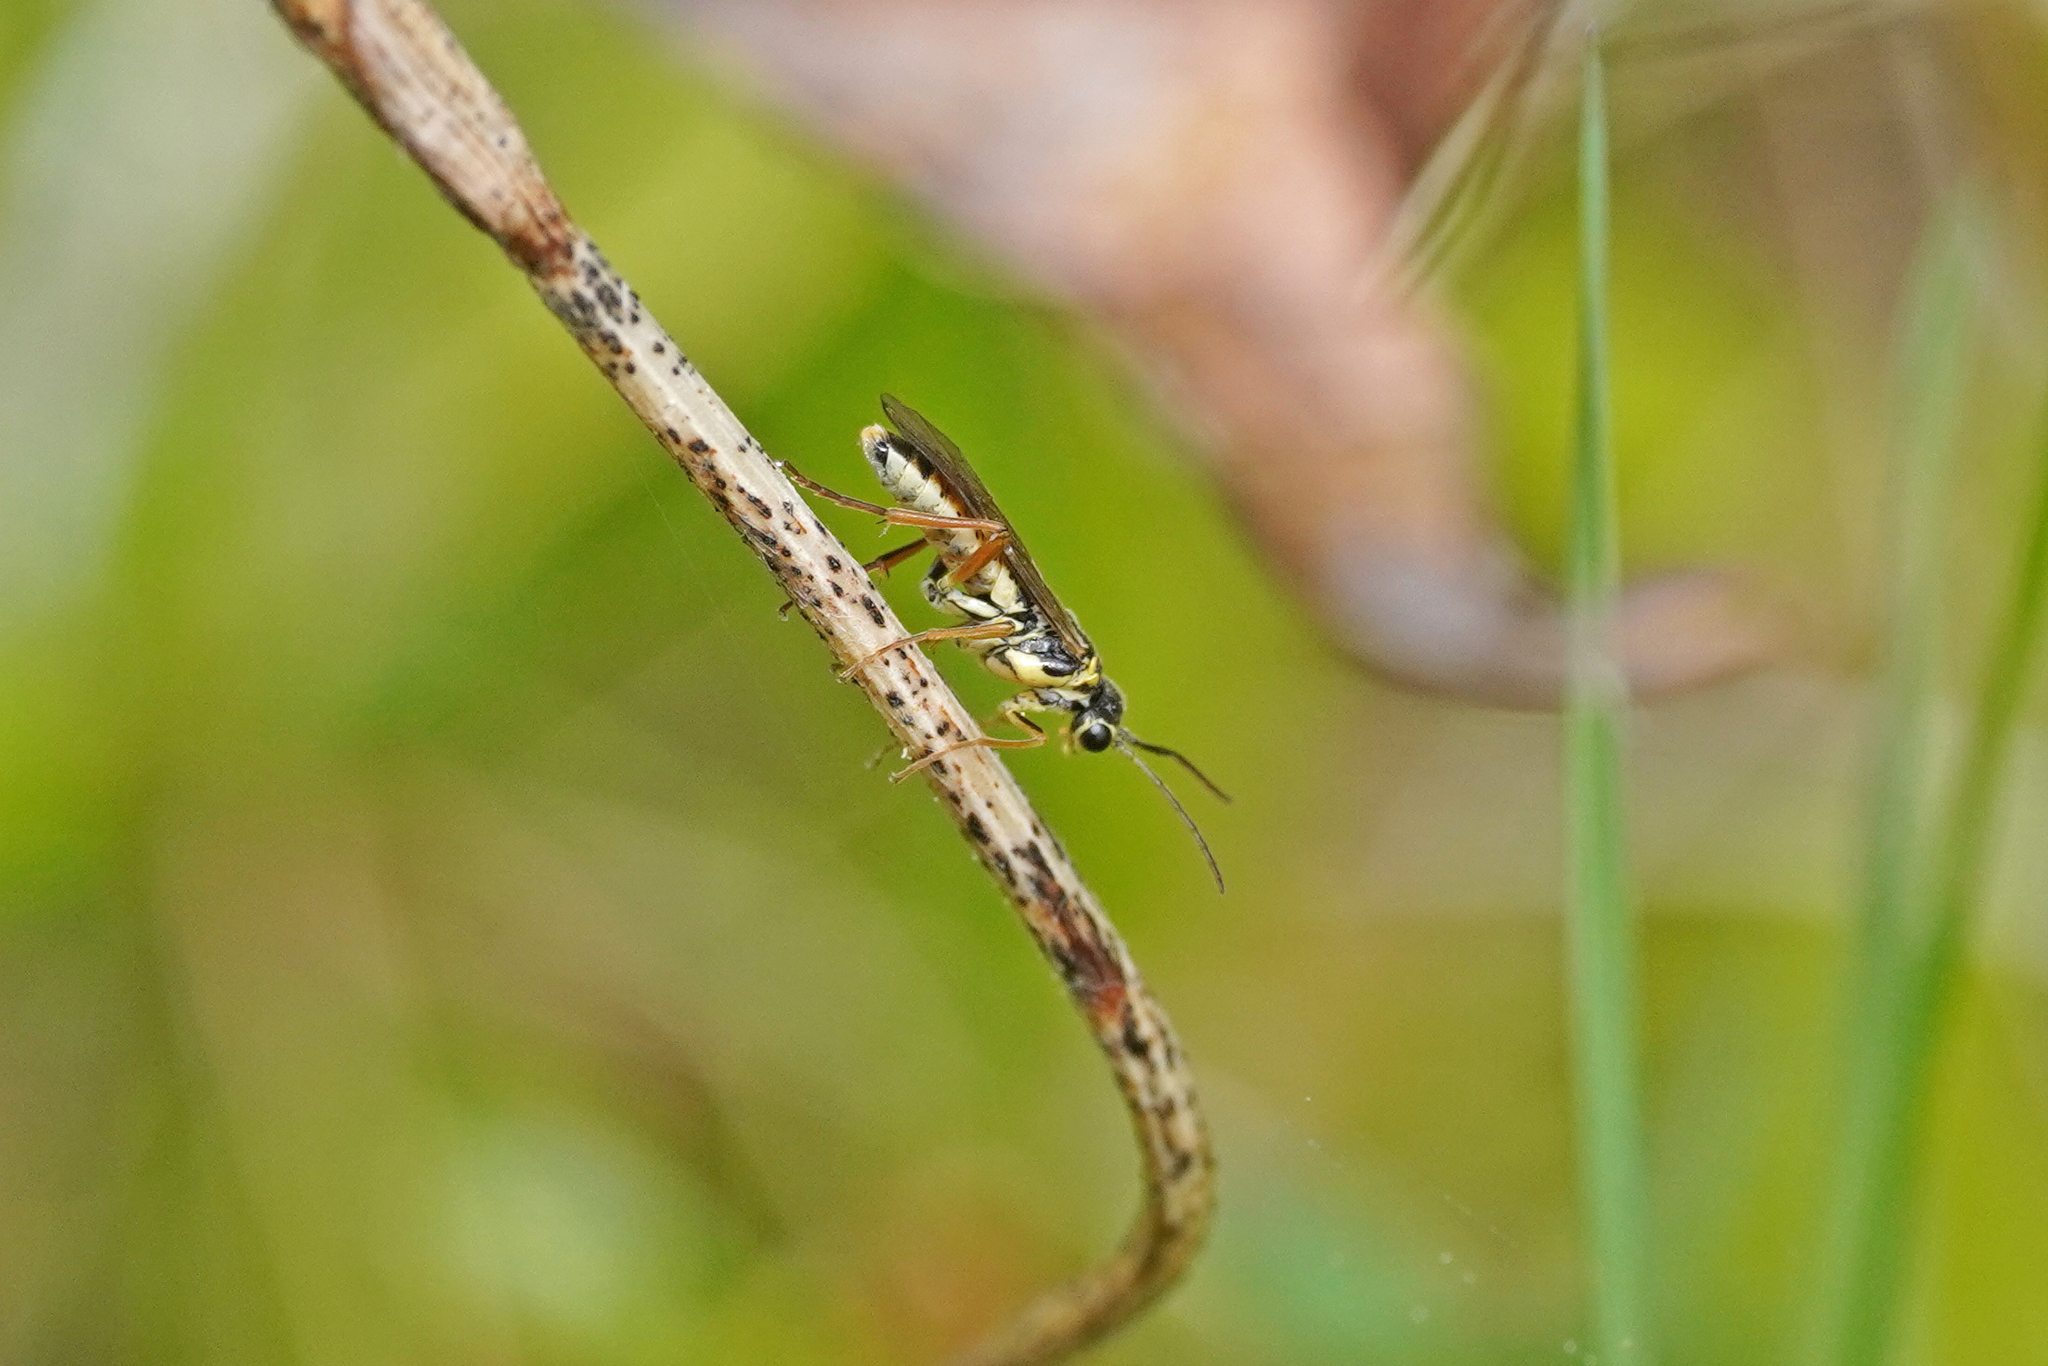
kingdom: Animalia
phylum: Arthropoda
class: Insecta
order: Hymenoptera
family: Tenthredinidae
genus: Aglaostigma
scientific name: Aglaostigma fulvipes
